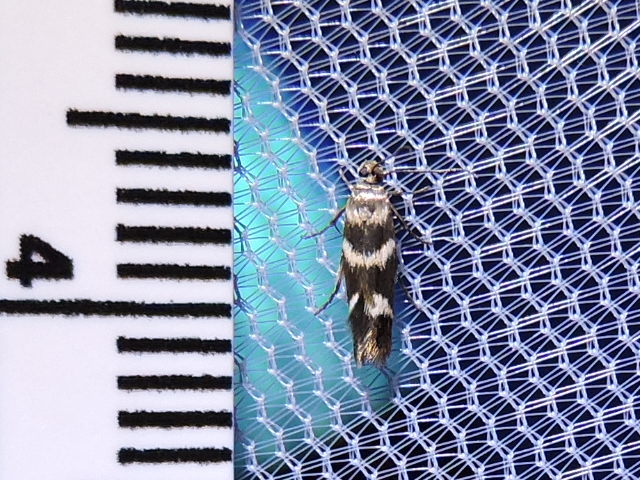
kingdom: Animalia
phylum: Arthropoda
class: Insecta
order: Lepidoptera
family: Scythrididae
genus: Scythris
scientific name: Scythris trivinctella
